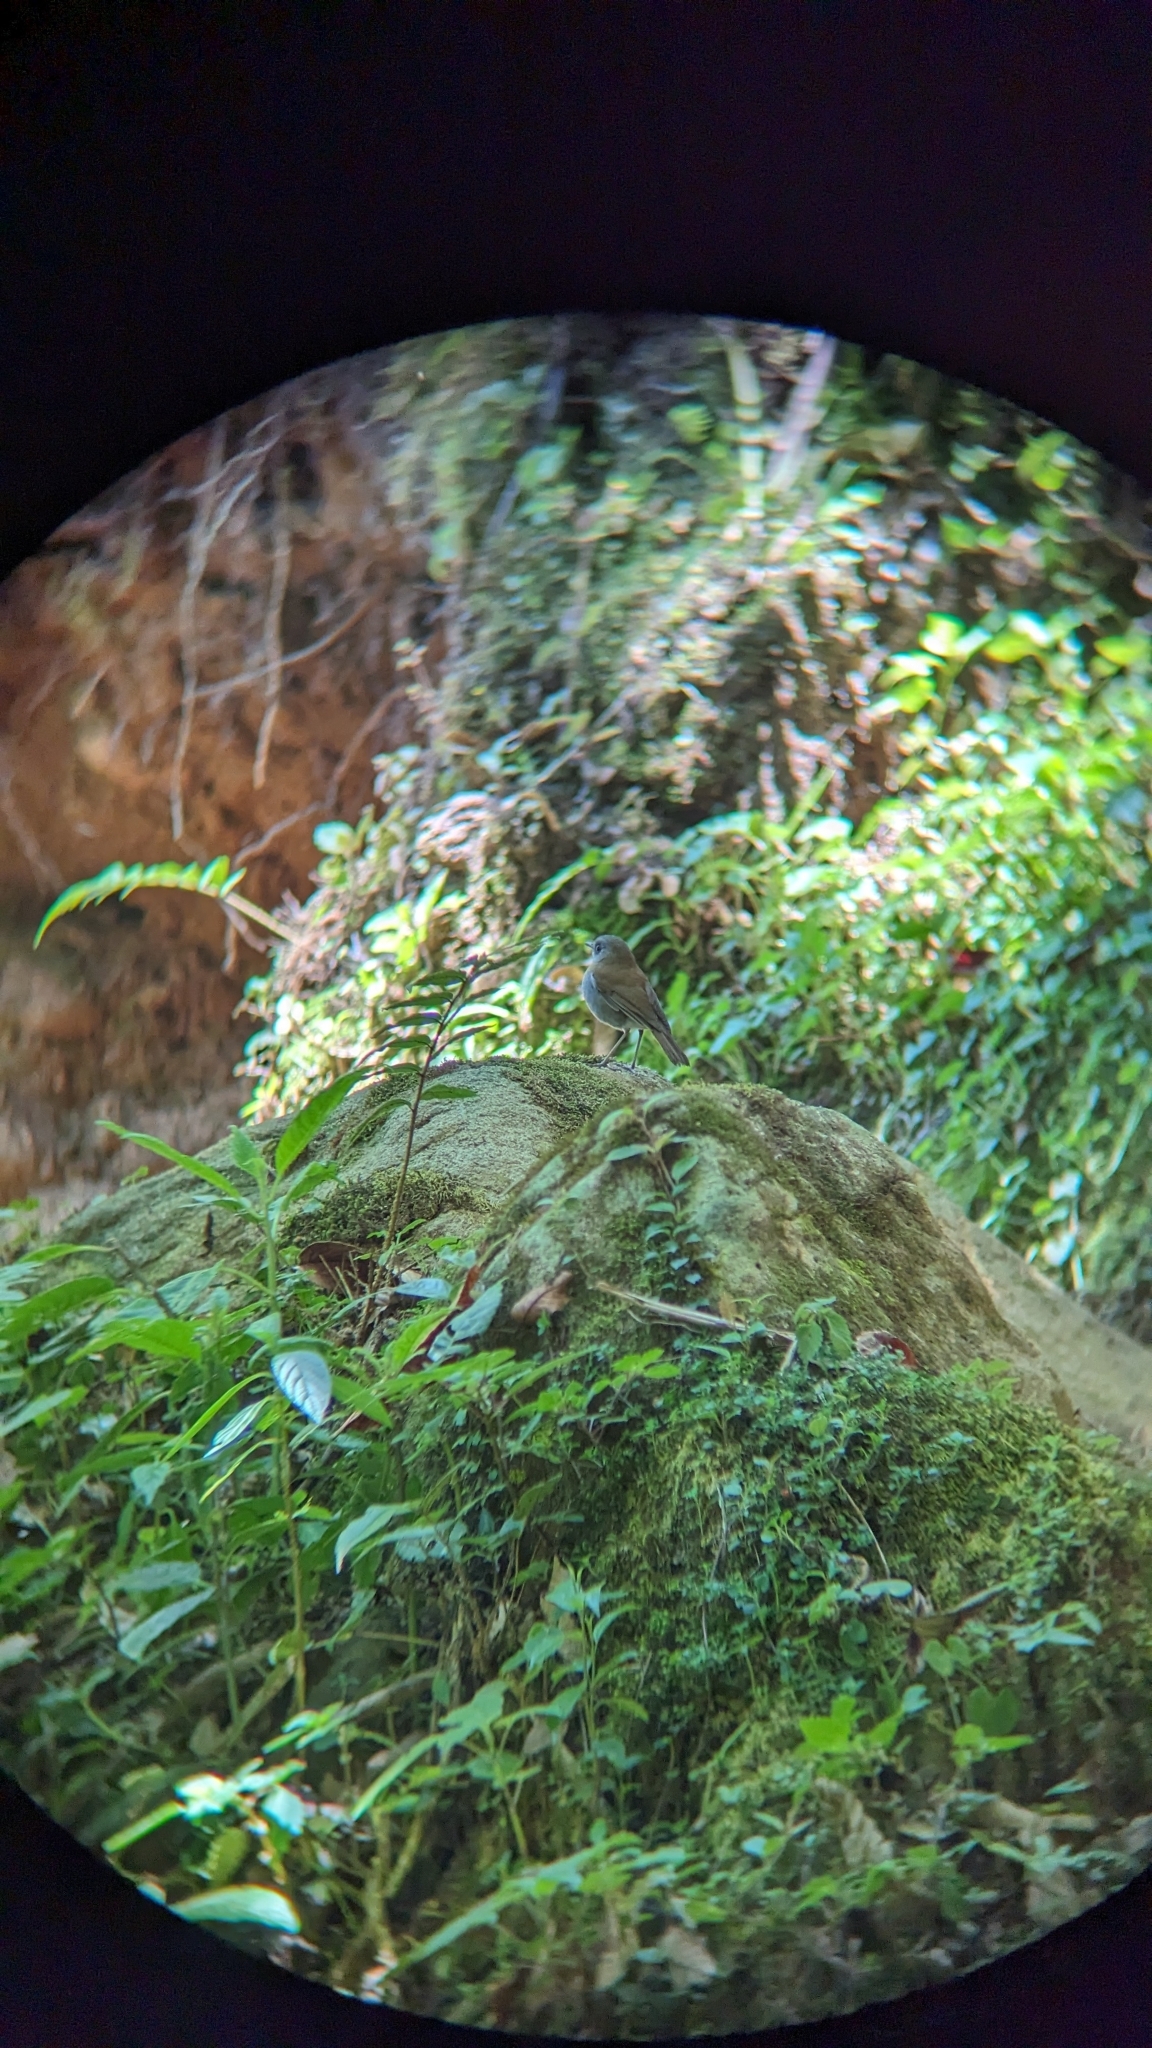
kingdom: Animalia
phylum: Chordata
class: Aves
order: Passeriformes
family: Turdidae
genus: Catharus
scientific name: Catharus gracilirostris
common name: Black-billed nightingale-thrush
